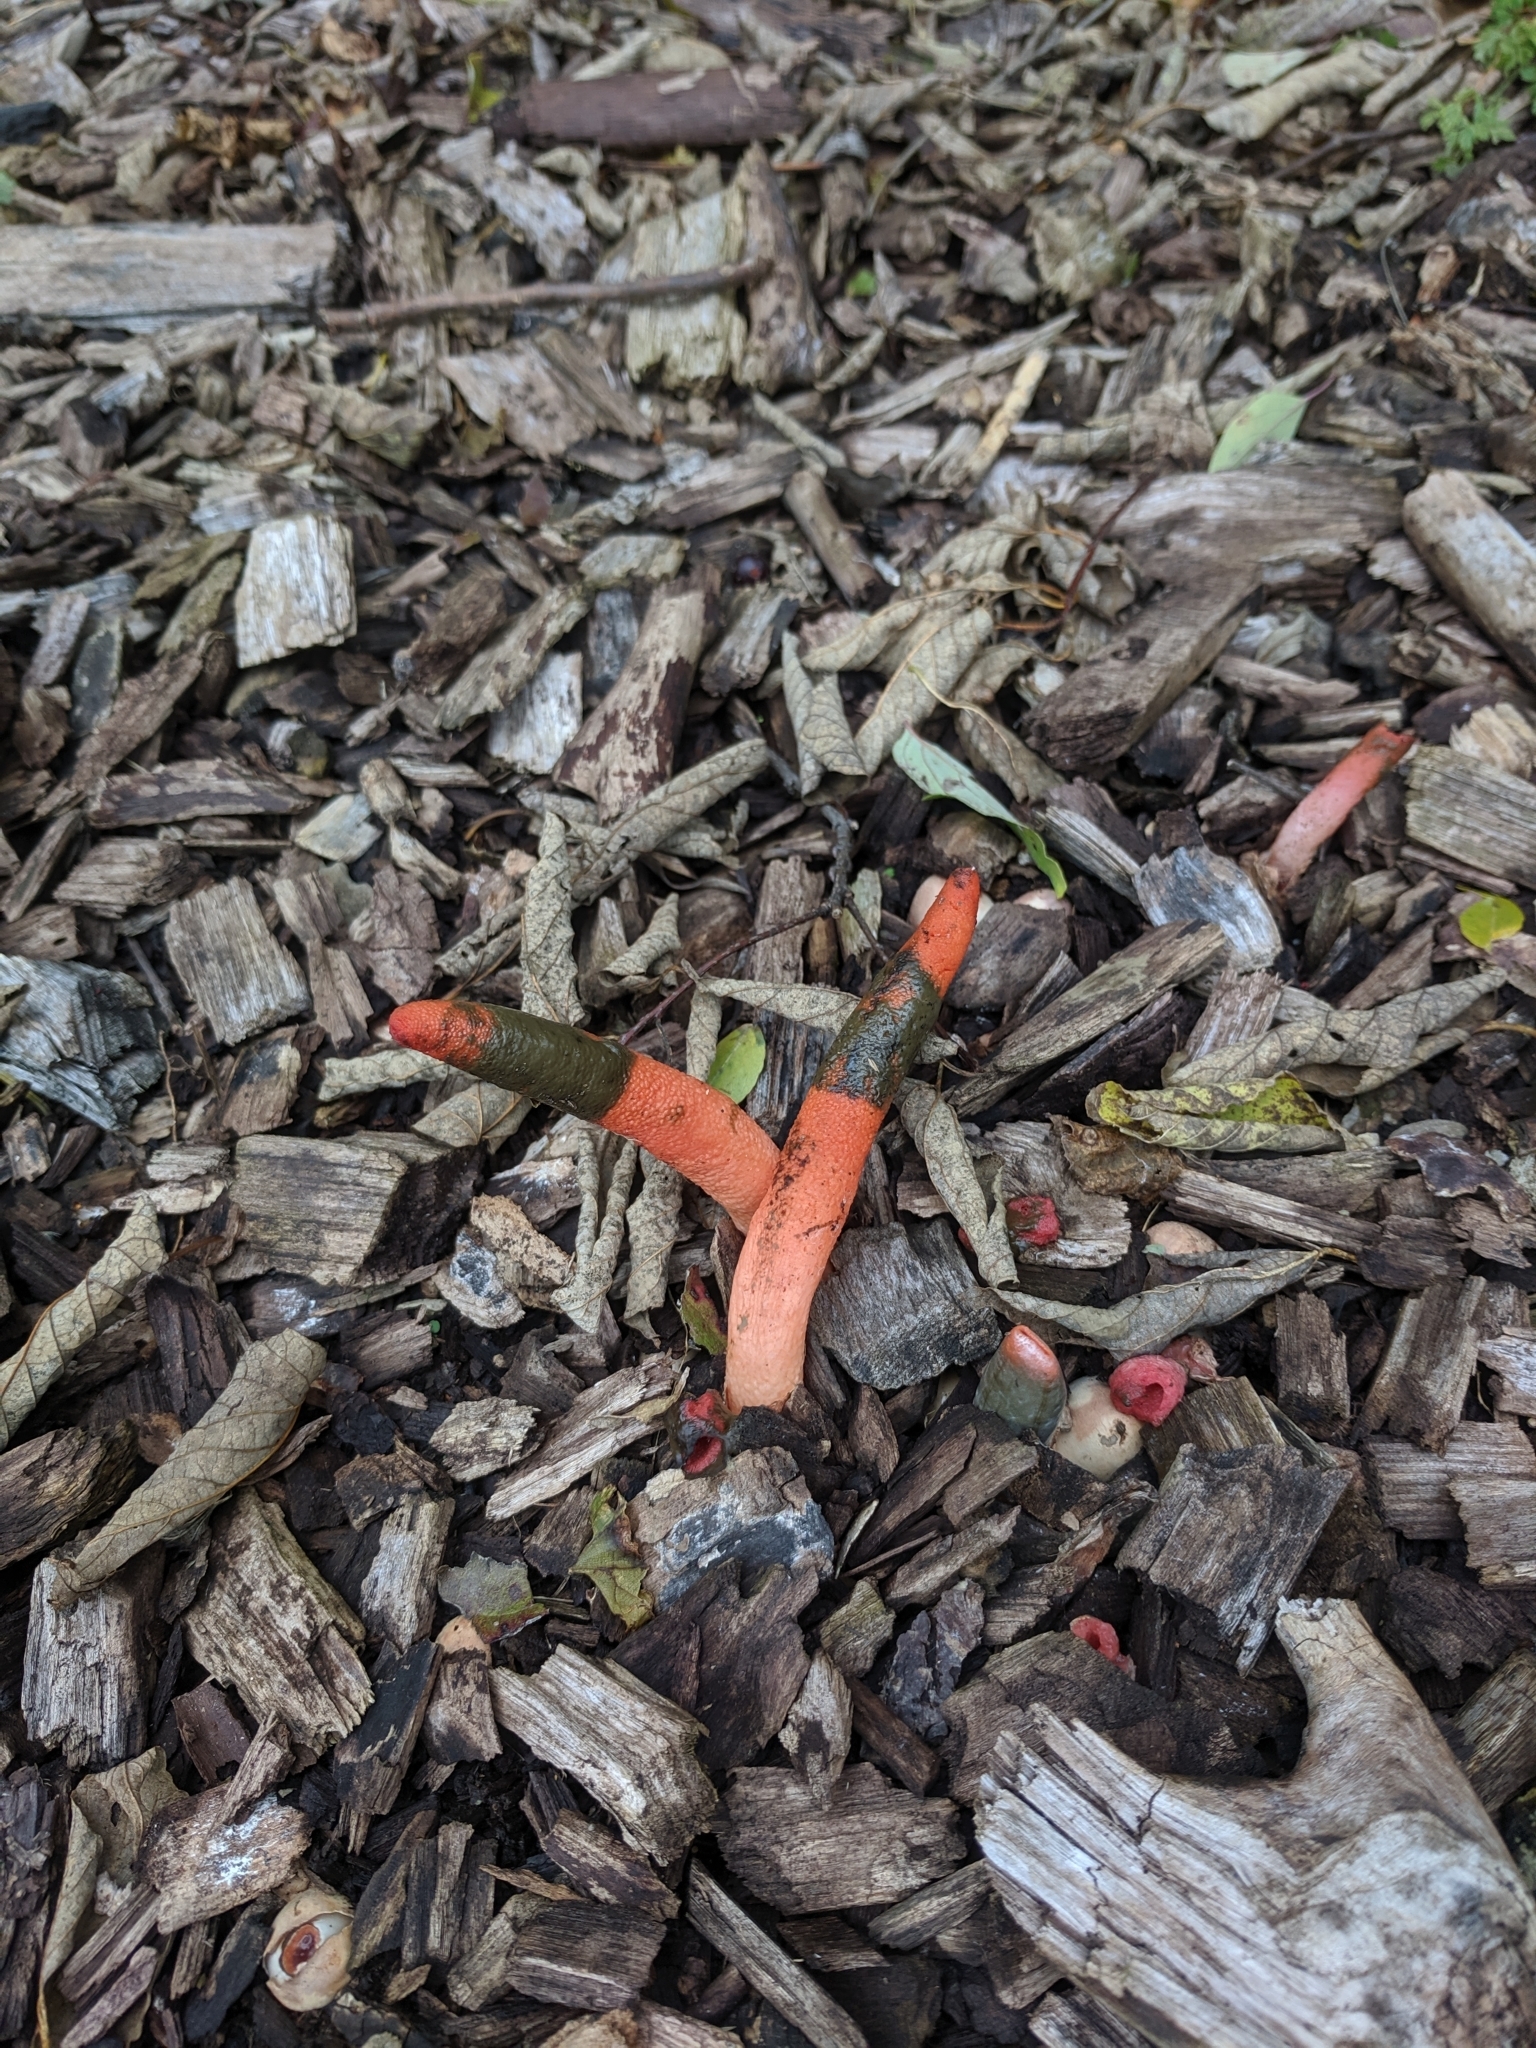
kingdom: Fungi
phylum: Basidiomycota
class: Agaricomycetes
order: Phallales
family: Phallaceae
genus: Mutinus
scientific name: Mutinus elegans
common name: Devil's dipstick
